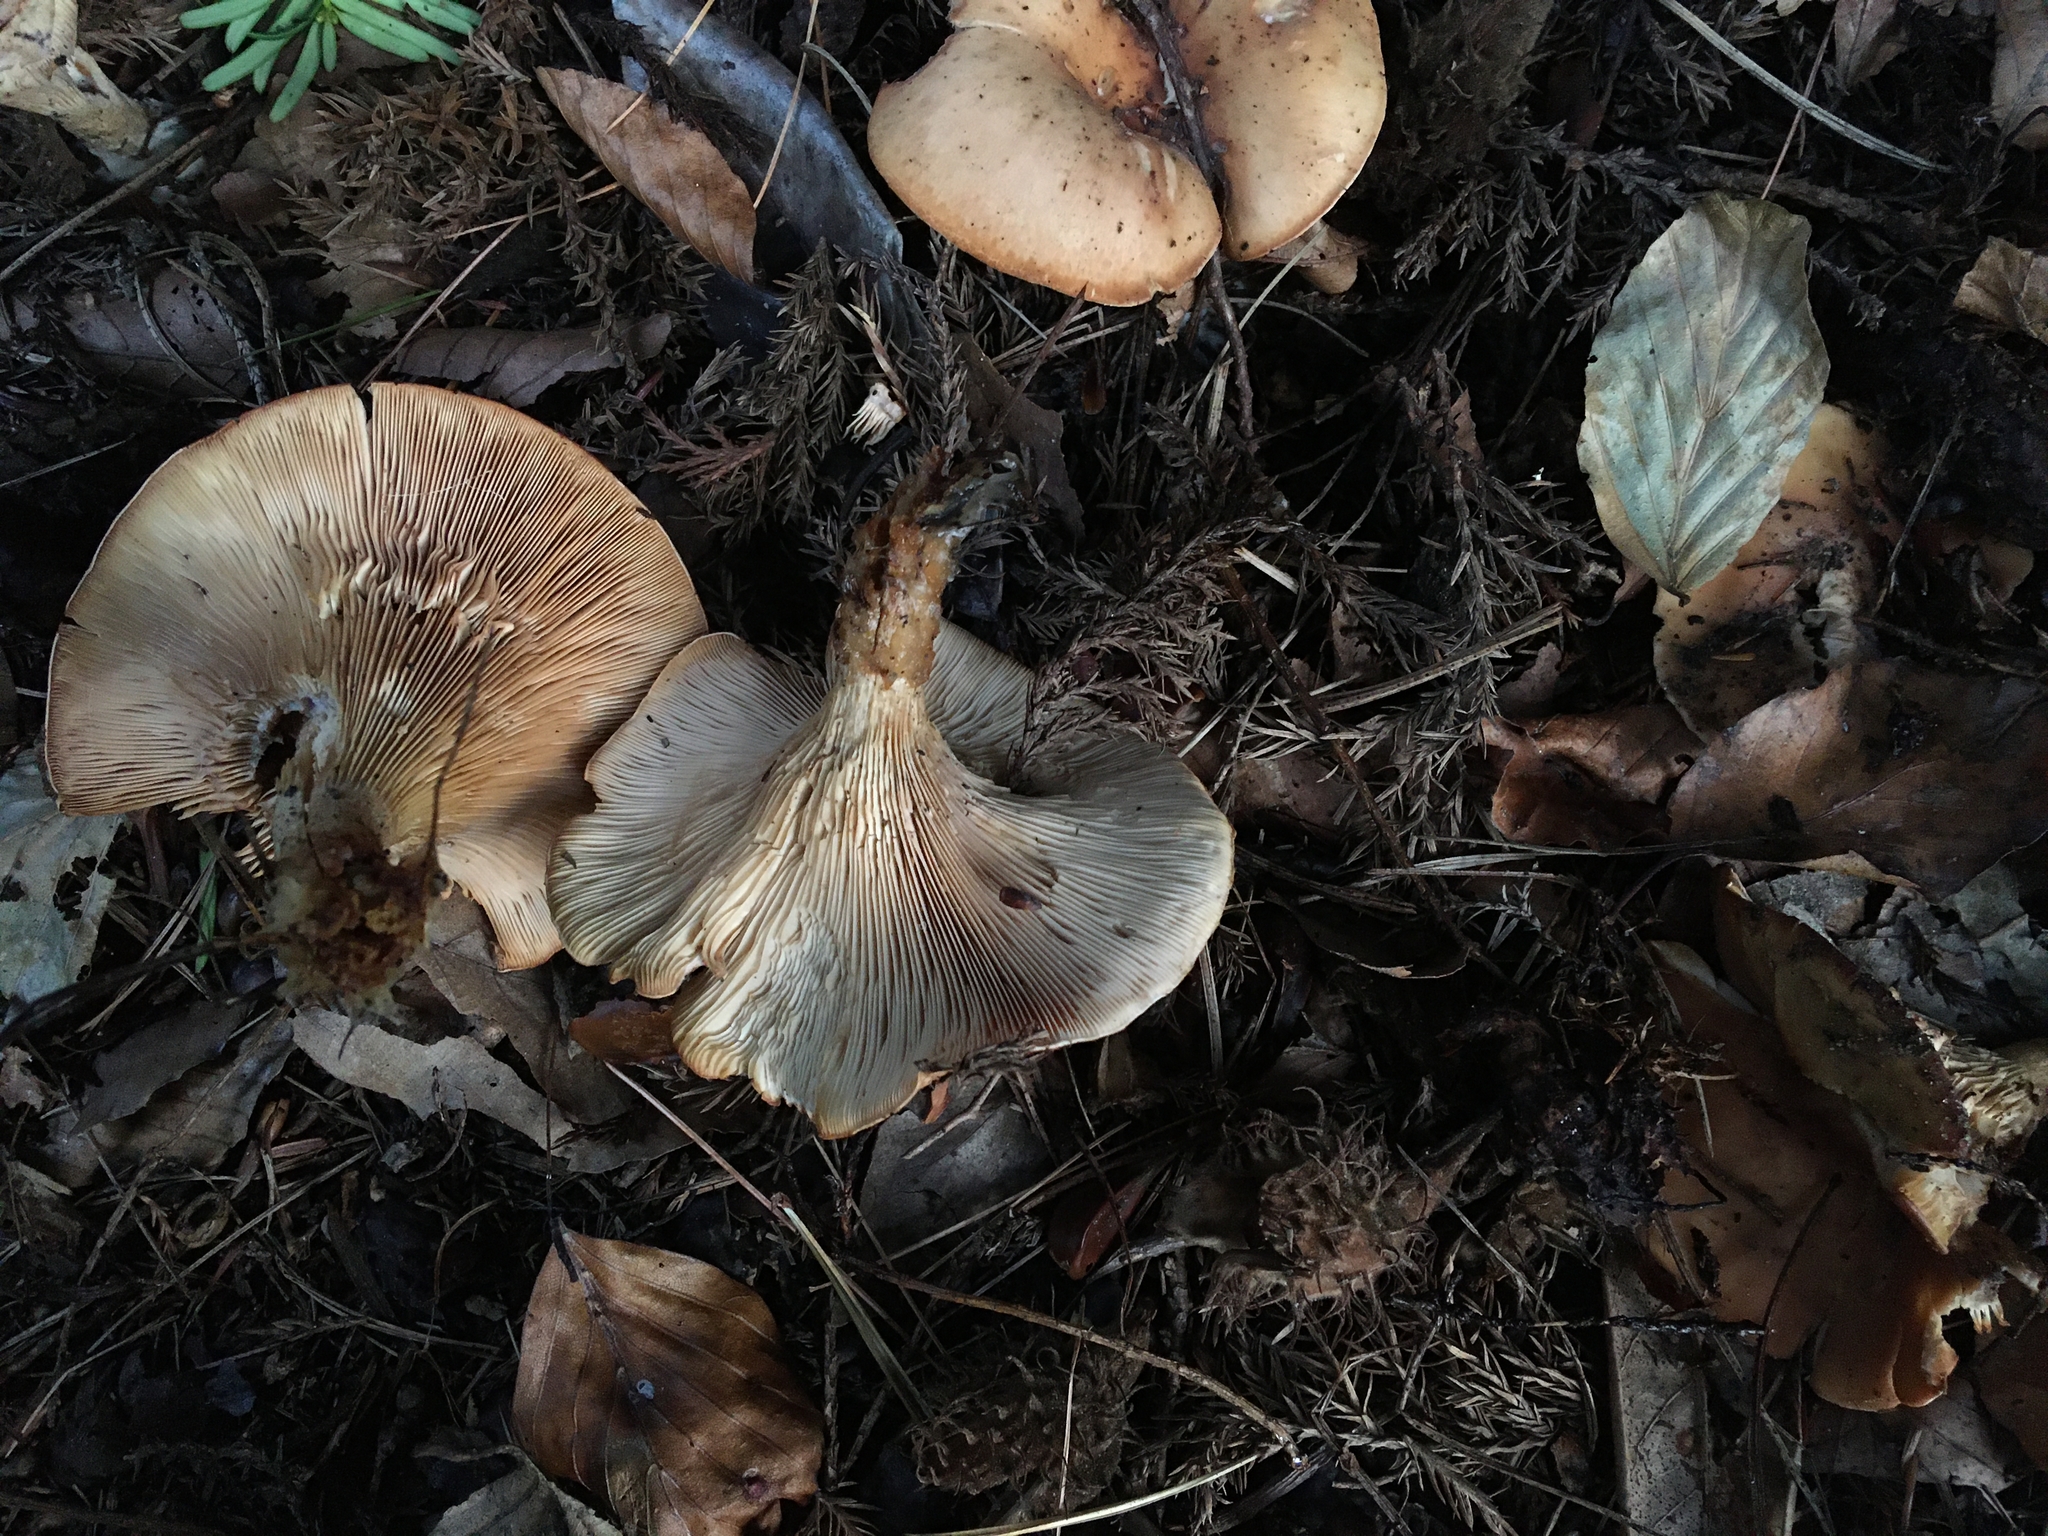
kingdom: Fungi
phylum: Basidiomycota
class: Agaricomycetes
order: Agaricales
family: Tricholomataceae
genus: Paralepista
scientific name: Paralepista flaccida
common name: Tawny funnel cap
